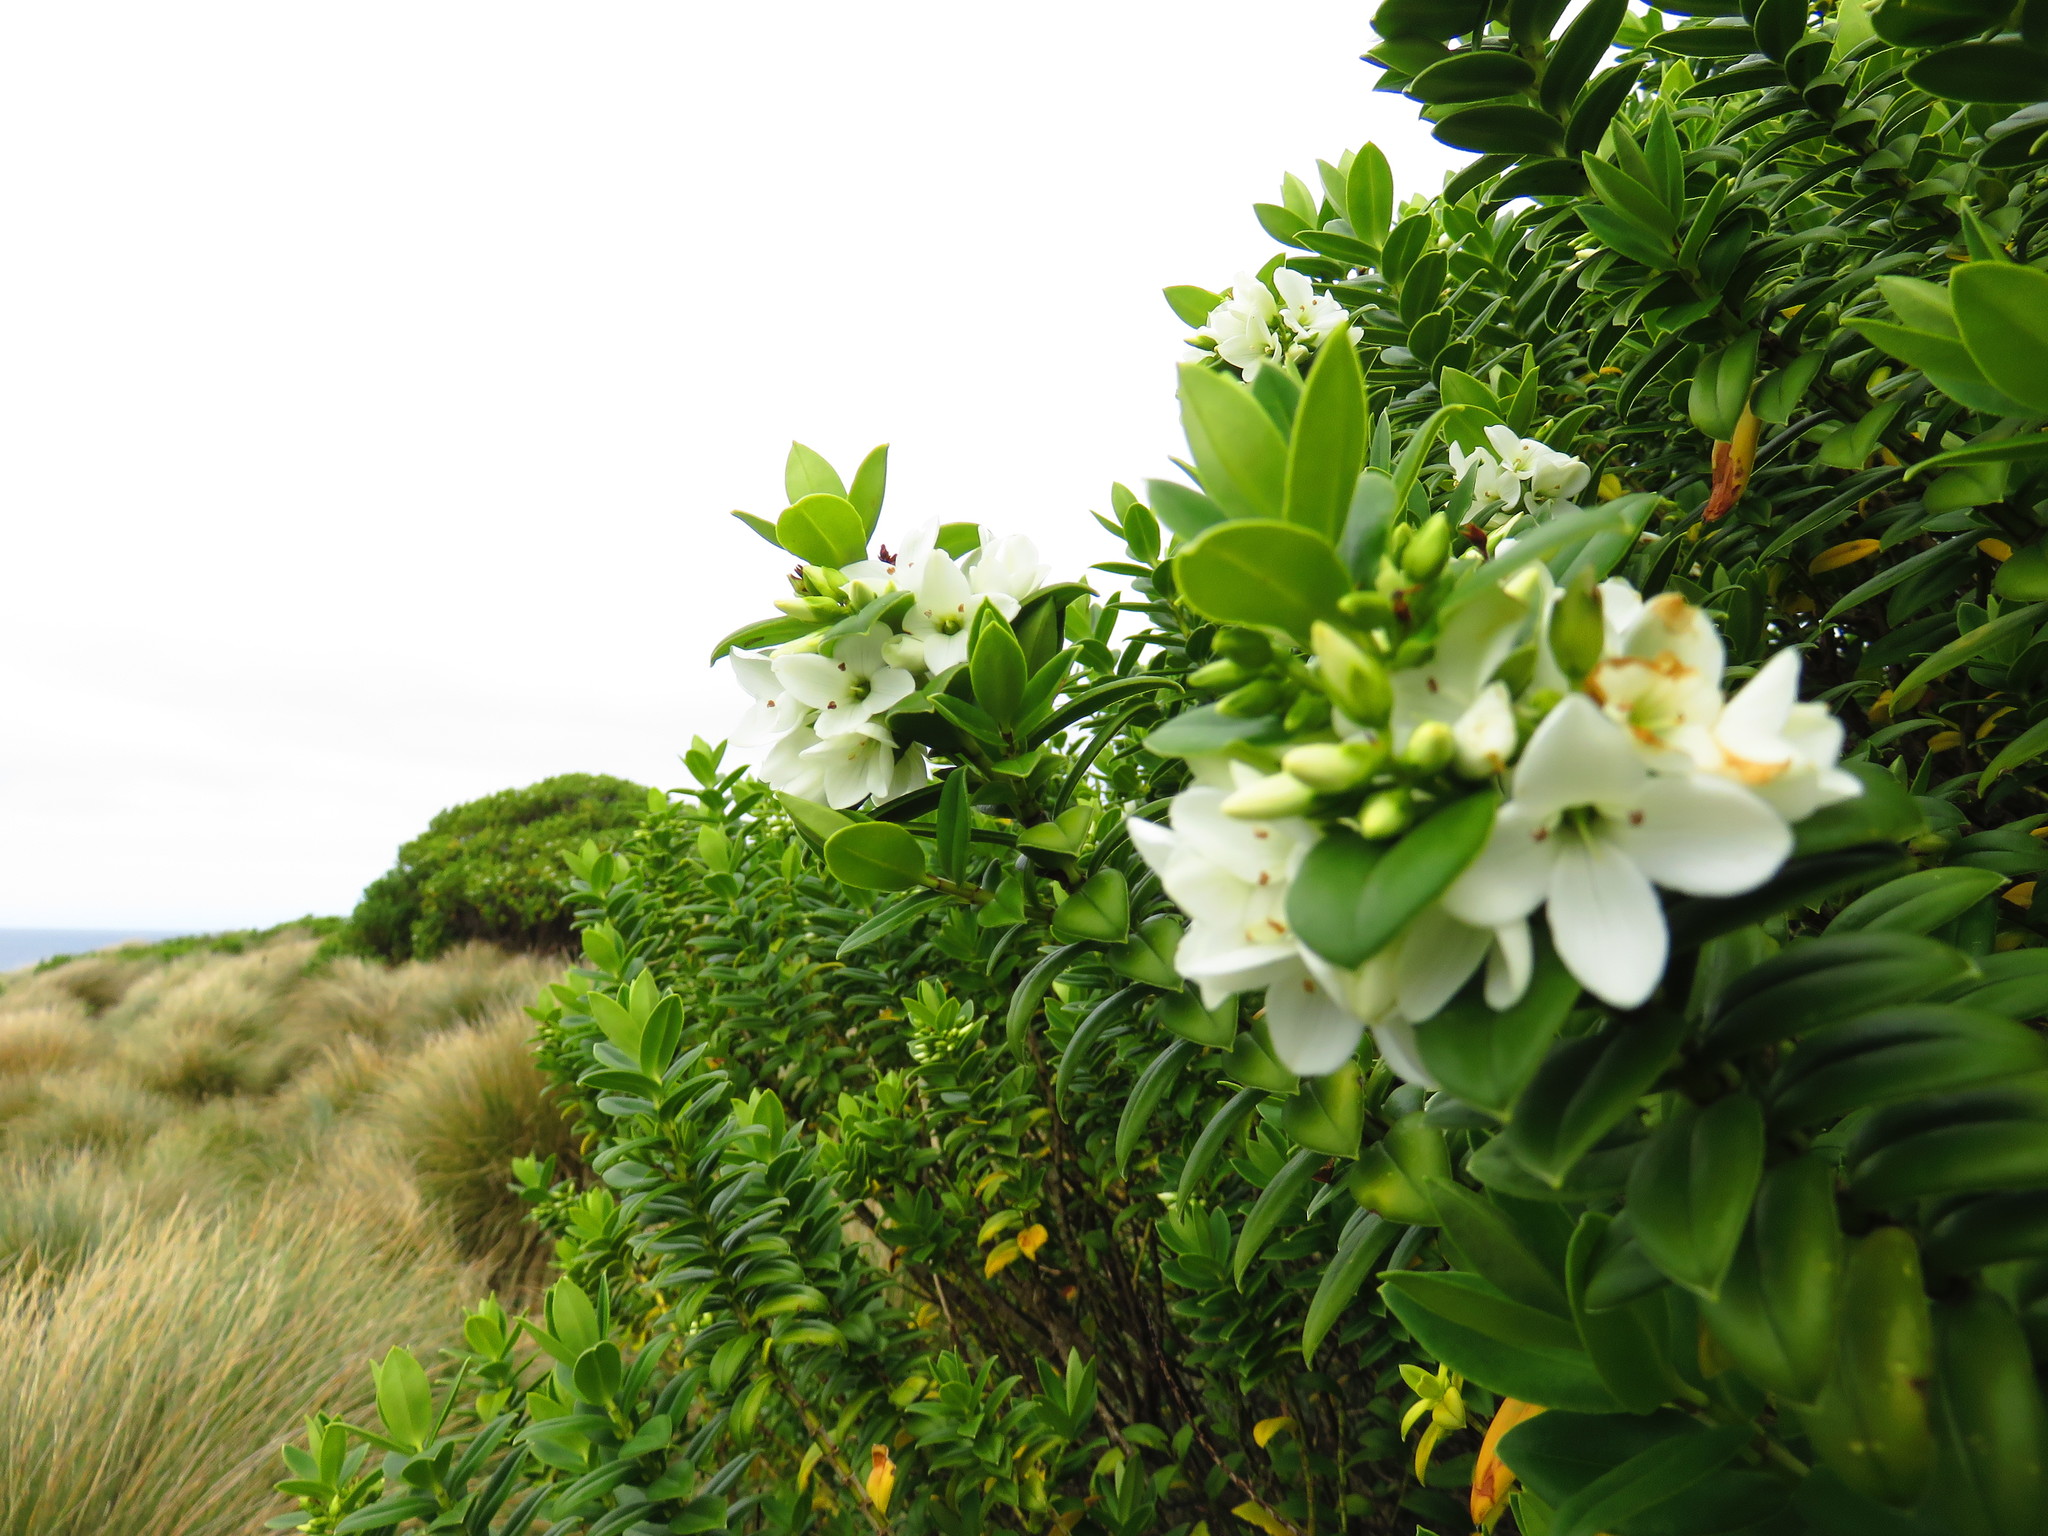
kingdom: Plantae
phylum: Tracheophyta
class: Magnoliopsida
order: Lamiales
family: Plantaginaceae
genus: Veronica
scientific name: Veronica elliptica
